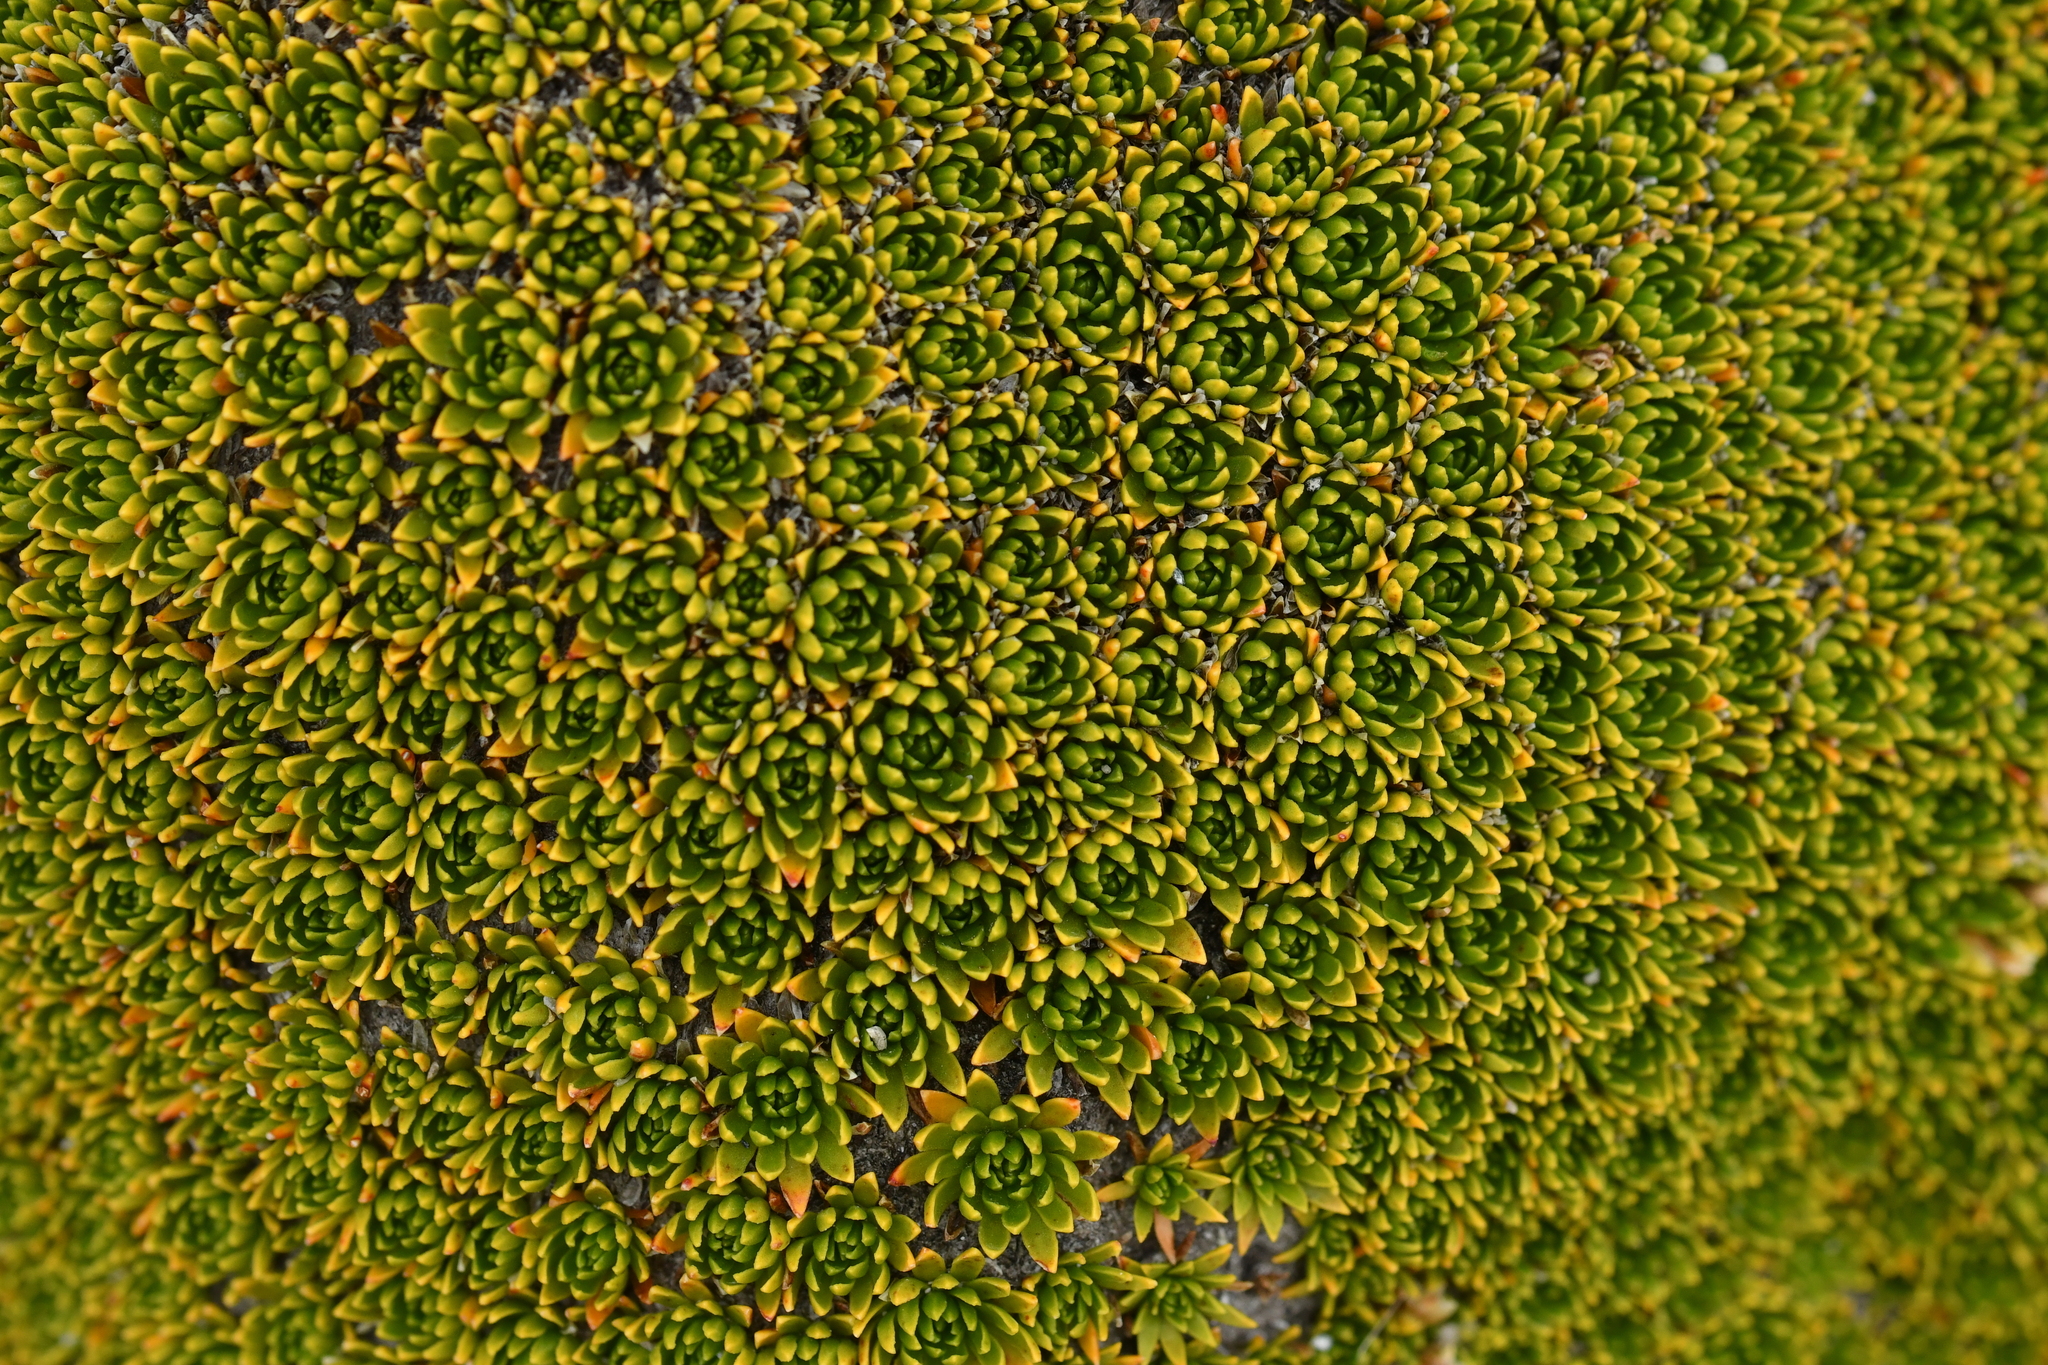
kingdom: Plantae
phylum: Tracheophyta
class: Magnoliopsida
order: Caryophyllales
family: Montiaceae
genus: Hectorella
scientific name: Hectorella caespitosa
